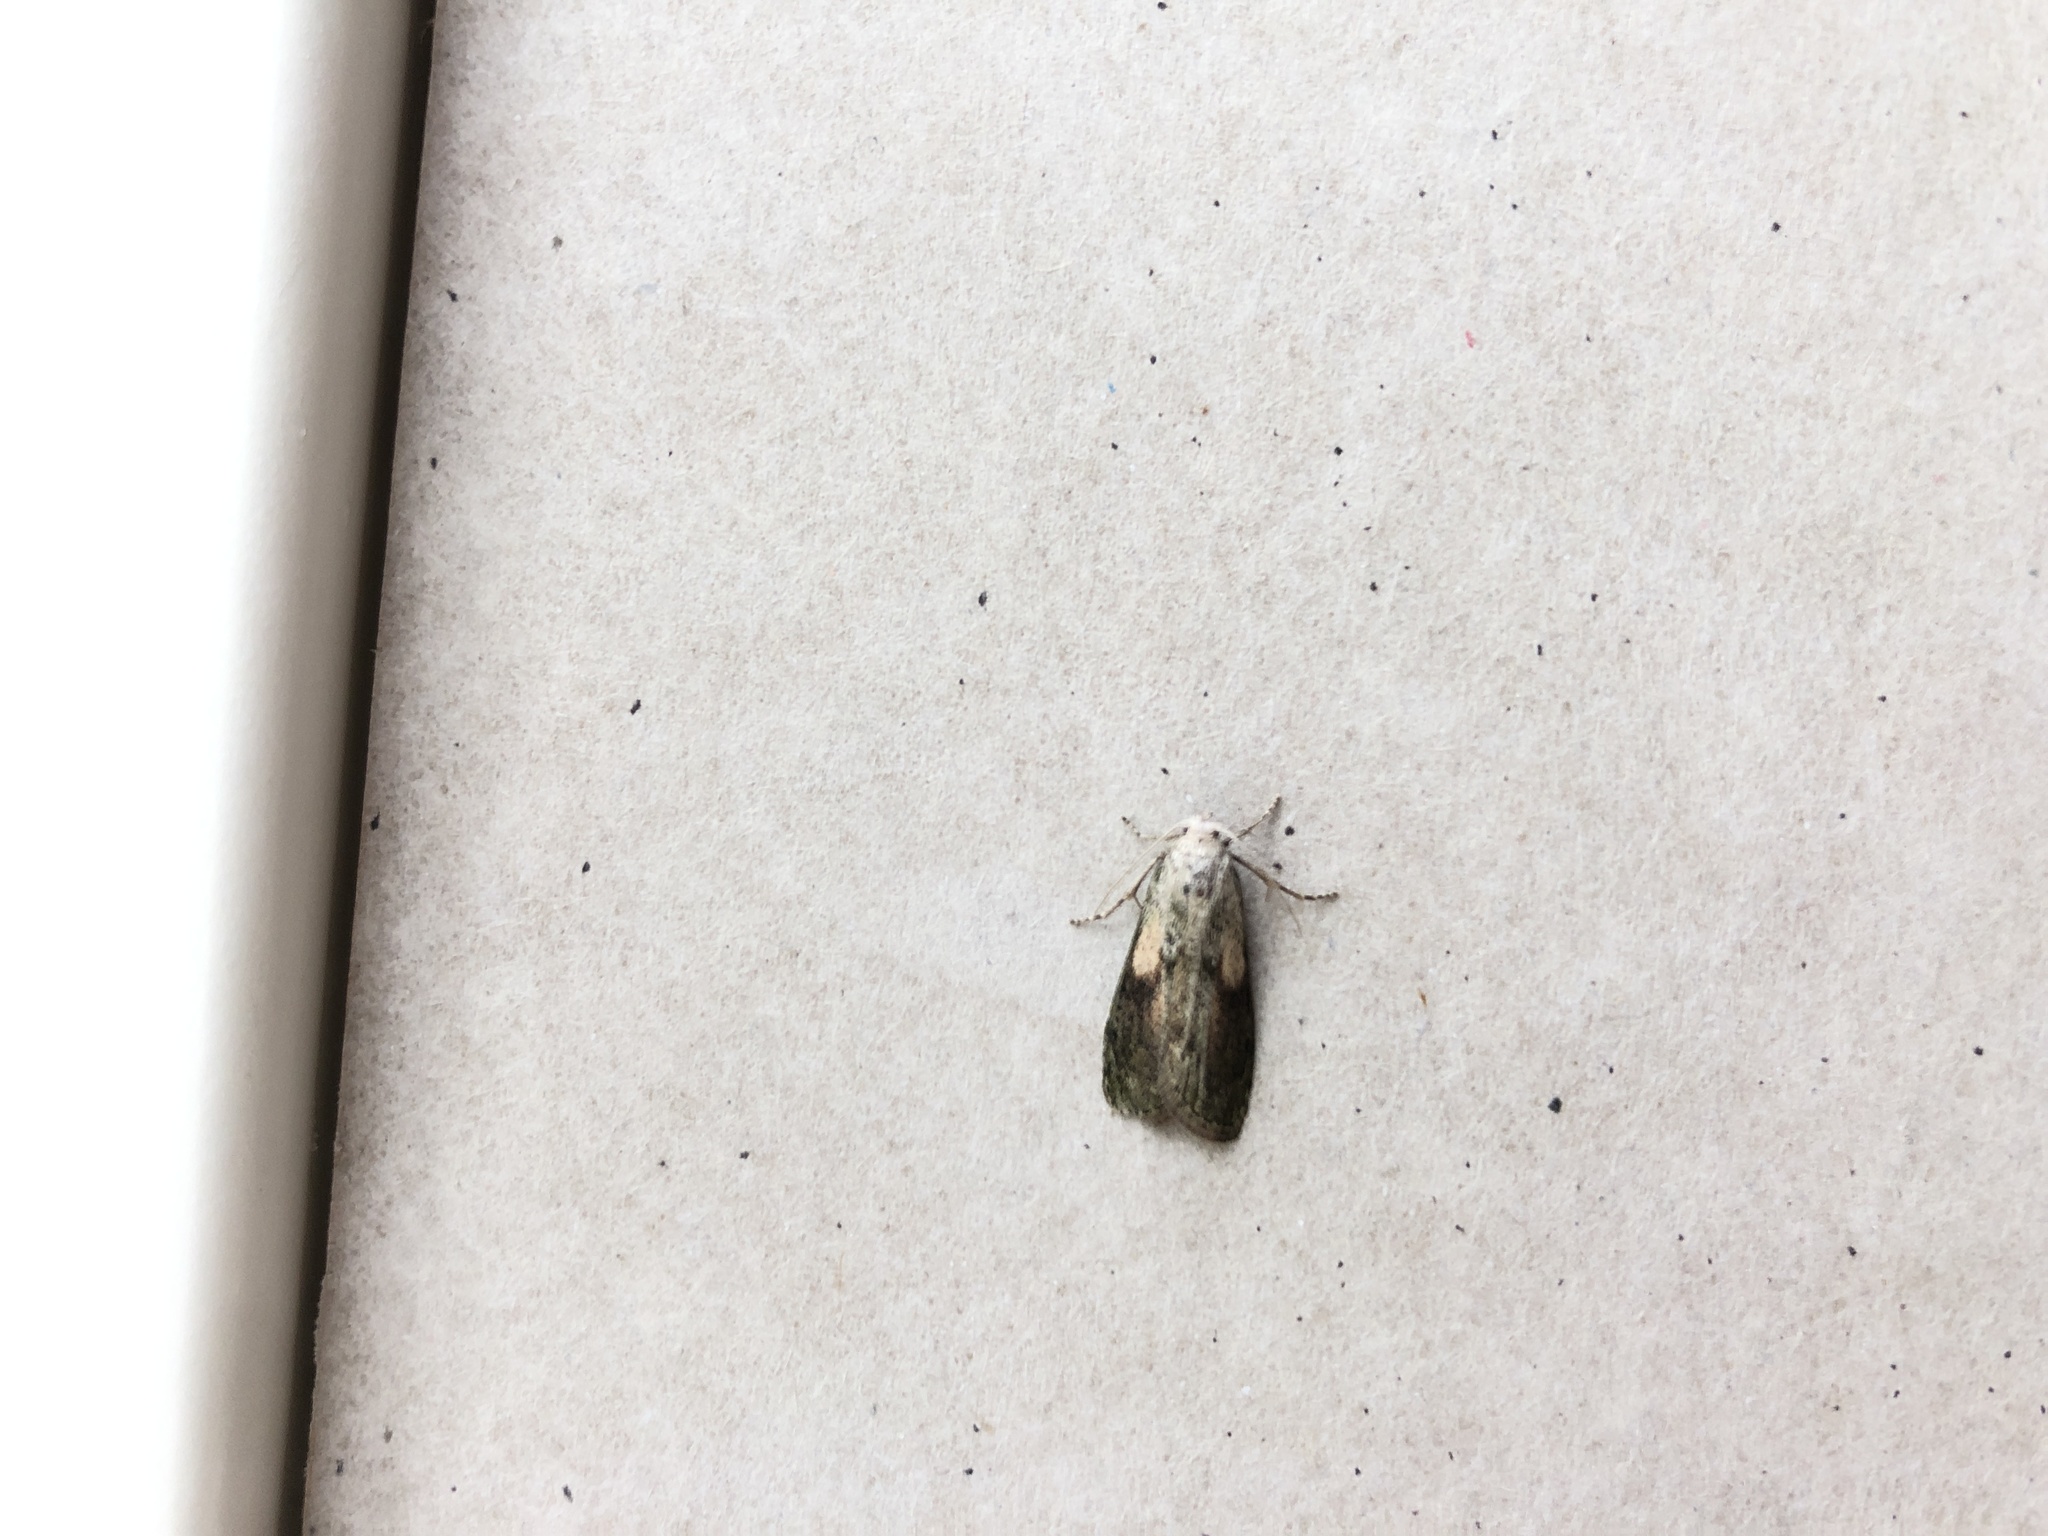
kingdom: Animalia
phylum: Arthropoda
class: Insecta
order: Lepidoptera
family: Pyralidae
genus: Aphomia
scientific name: Aphomia sociella
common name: Bee moth
